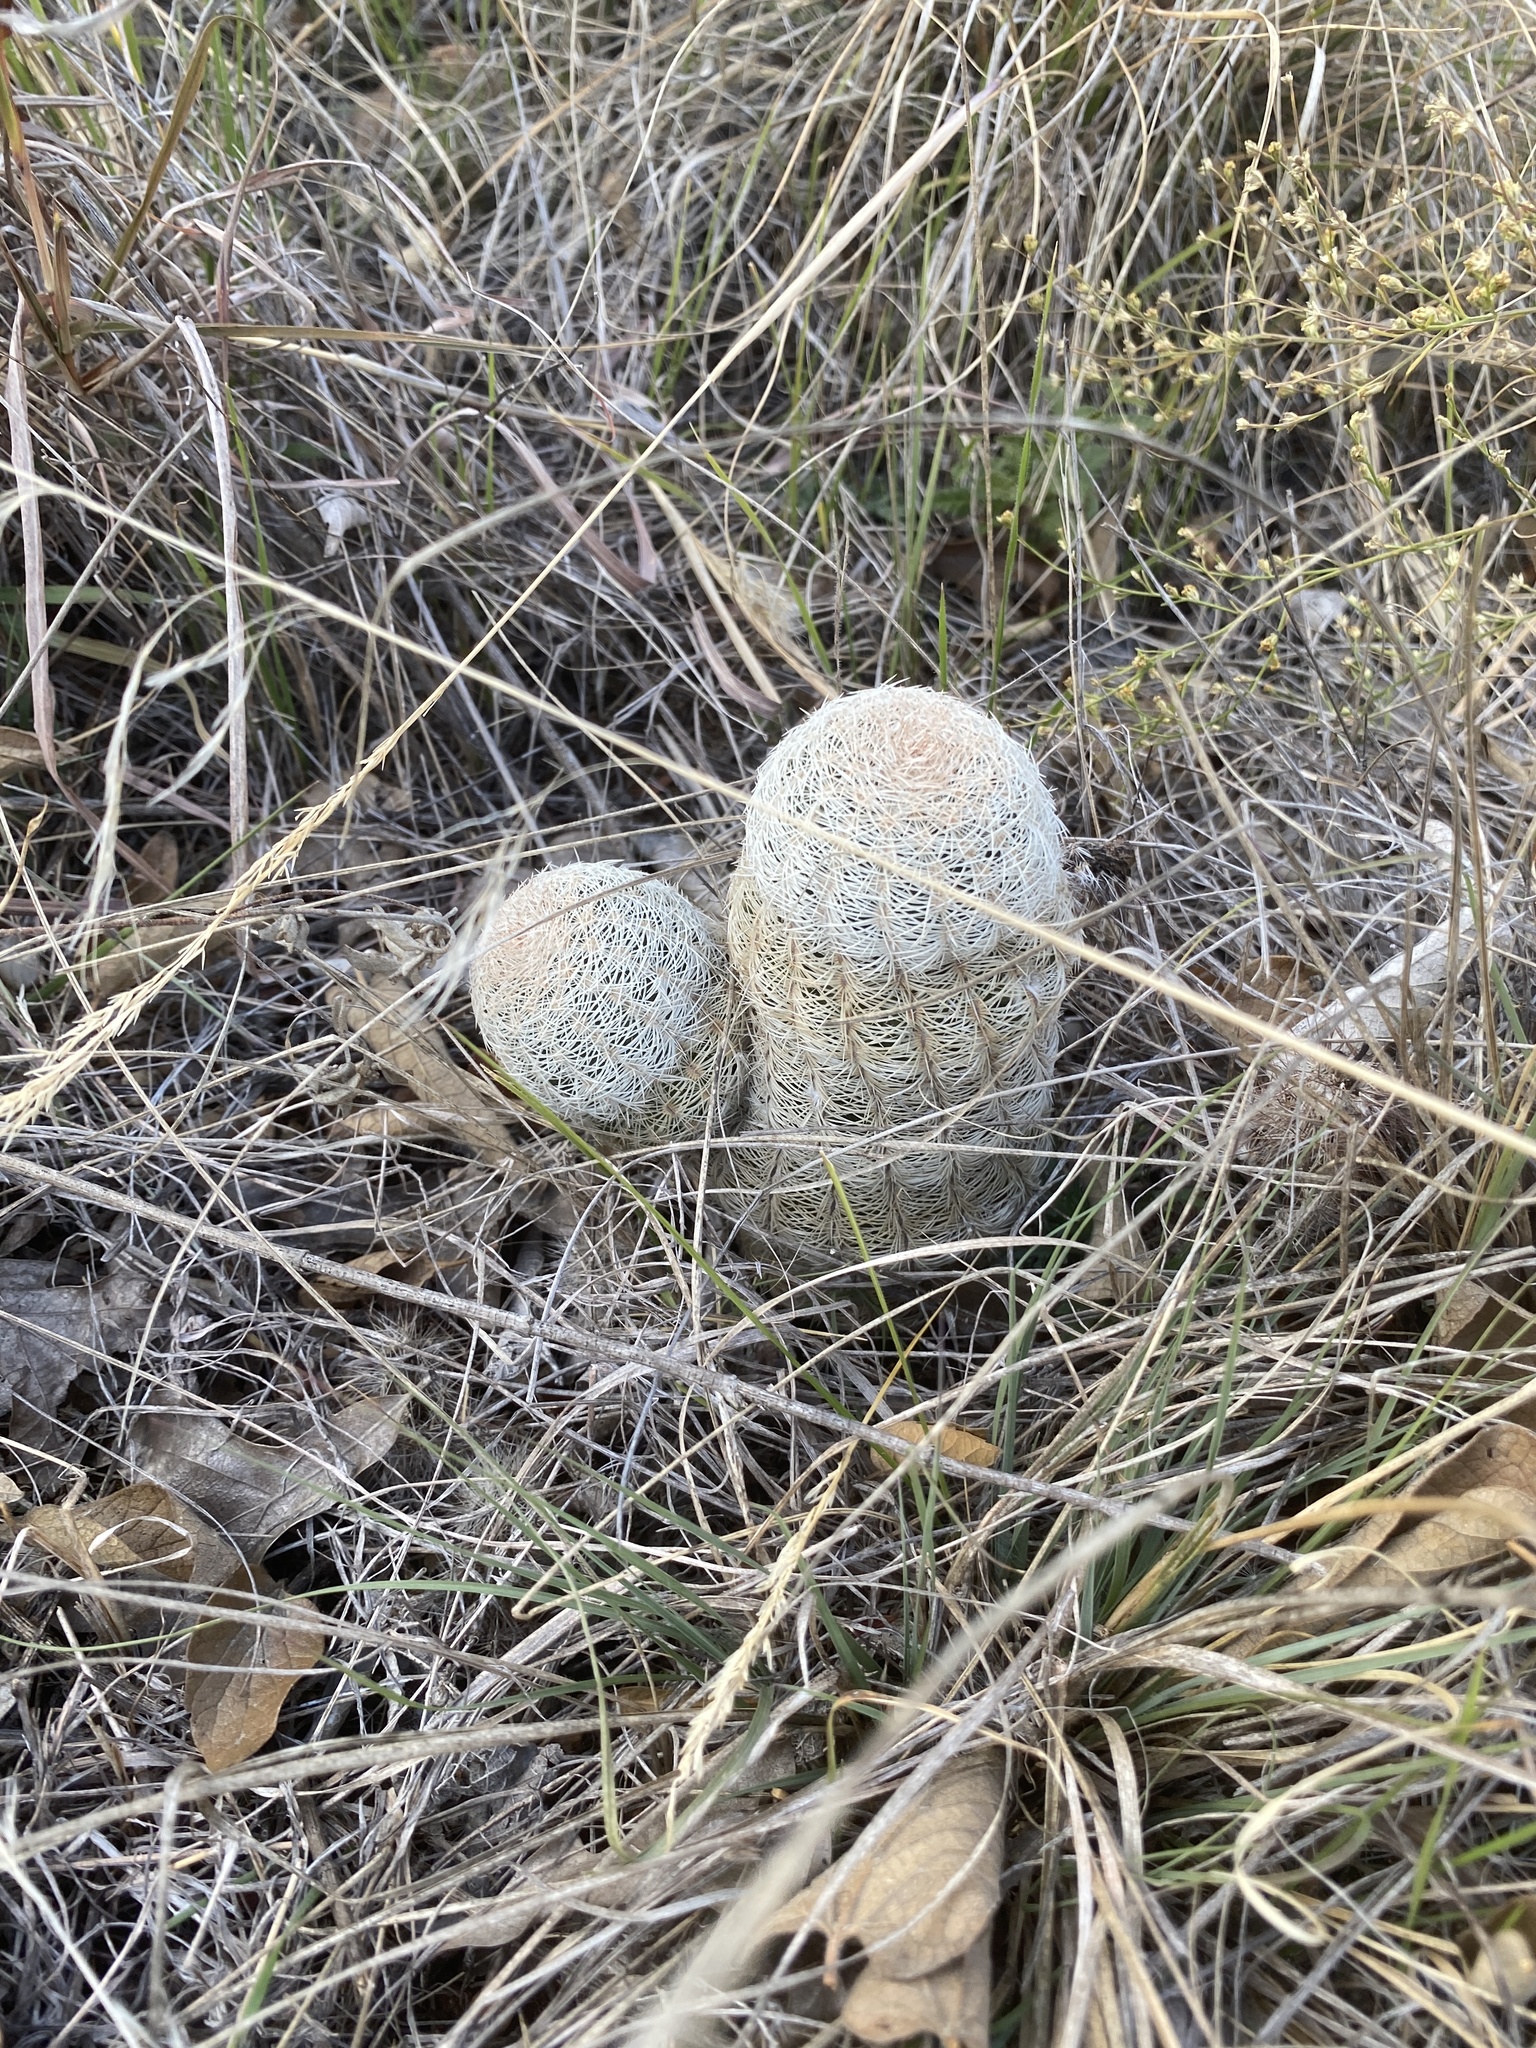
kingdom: Plantae
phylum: Tracheophyta
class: Magnoliopsida
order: Caryophyllales
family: Cactaceae
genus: Echinocereus
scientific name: Echinocereus reichenbachii
